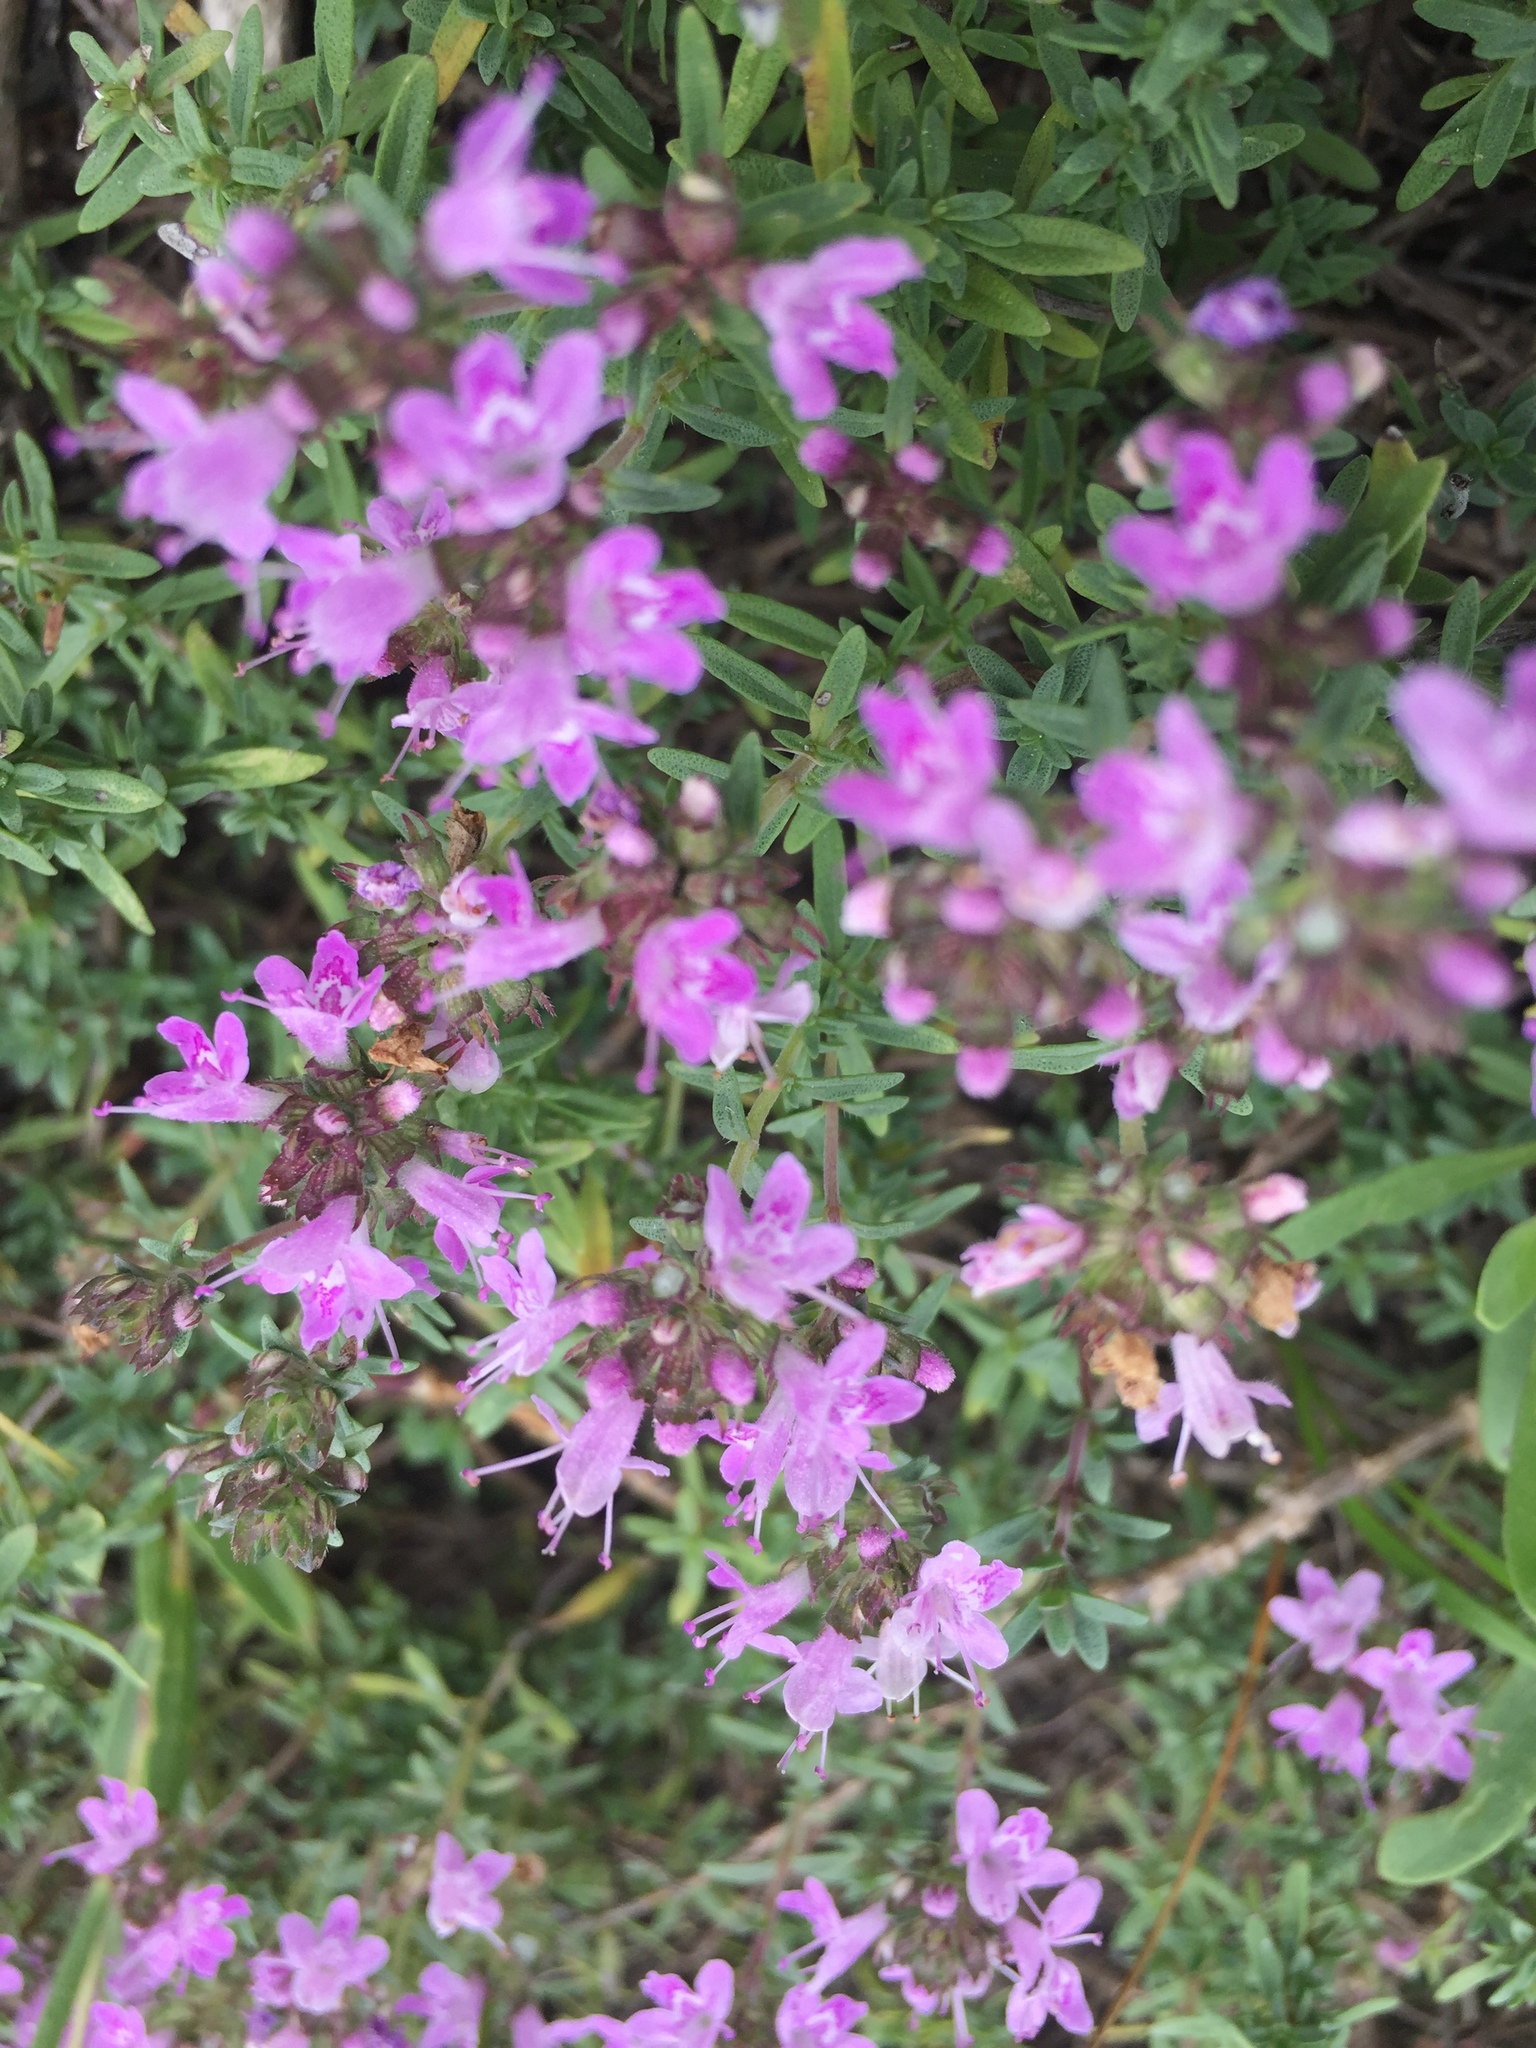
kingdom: Plantae
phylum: Tracheophyta
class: Magnoliopsida
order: Lamiales
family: Lamiaceae
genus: Thymus
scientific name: Thymus calcareus
